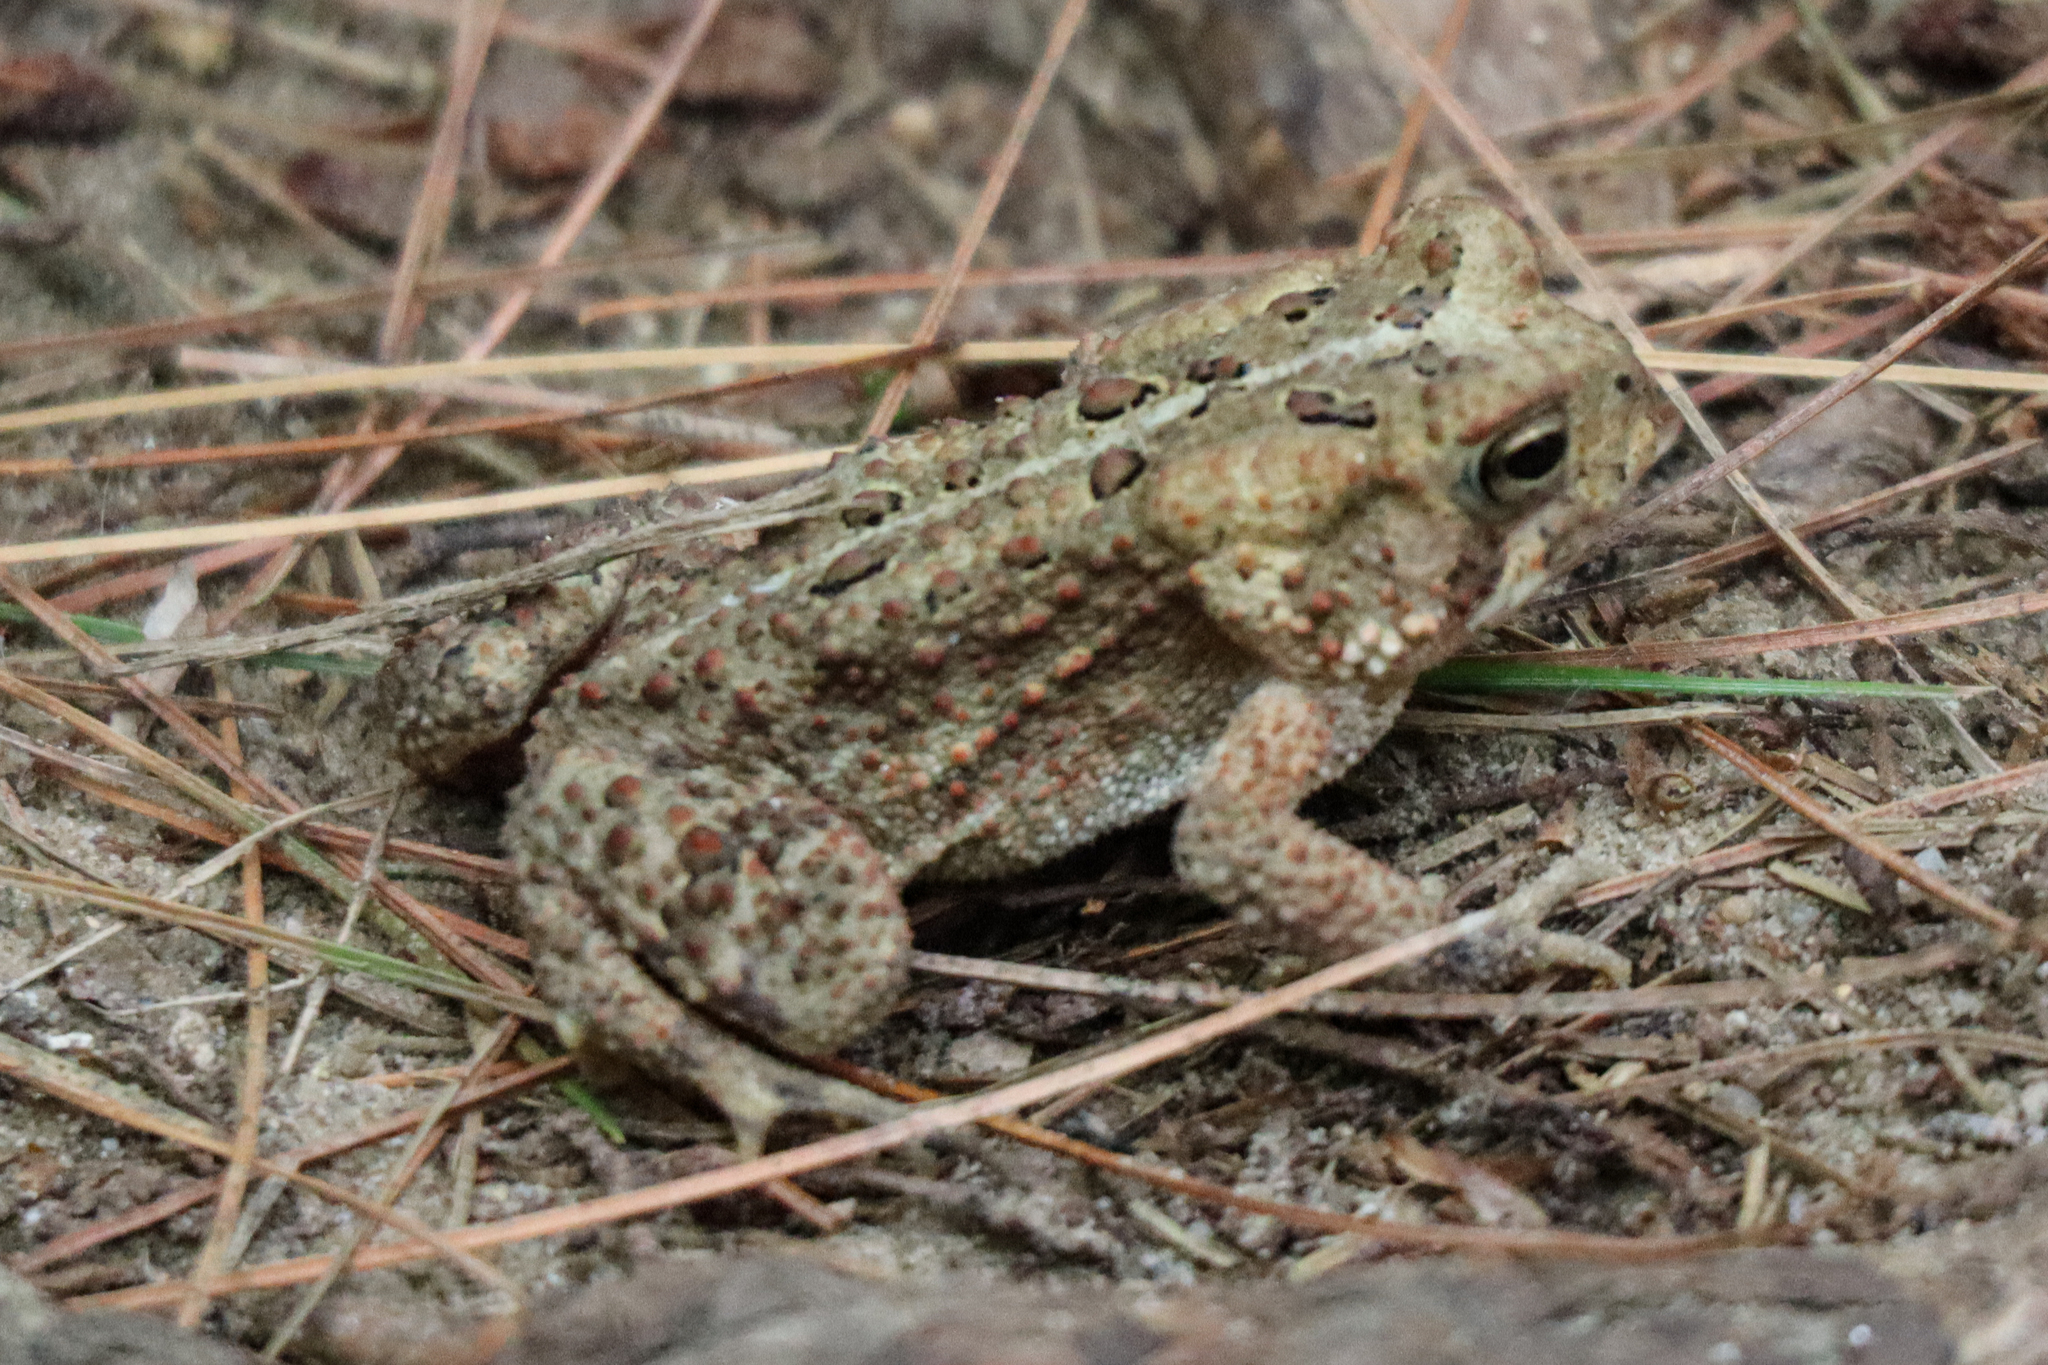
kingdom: Animalia
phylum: Chordata
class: Amphibia
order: Anura
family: Bufonidae
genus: Anaxyrus
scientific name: Anaxyrus americanus
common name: American toad
